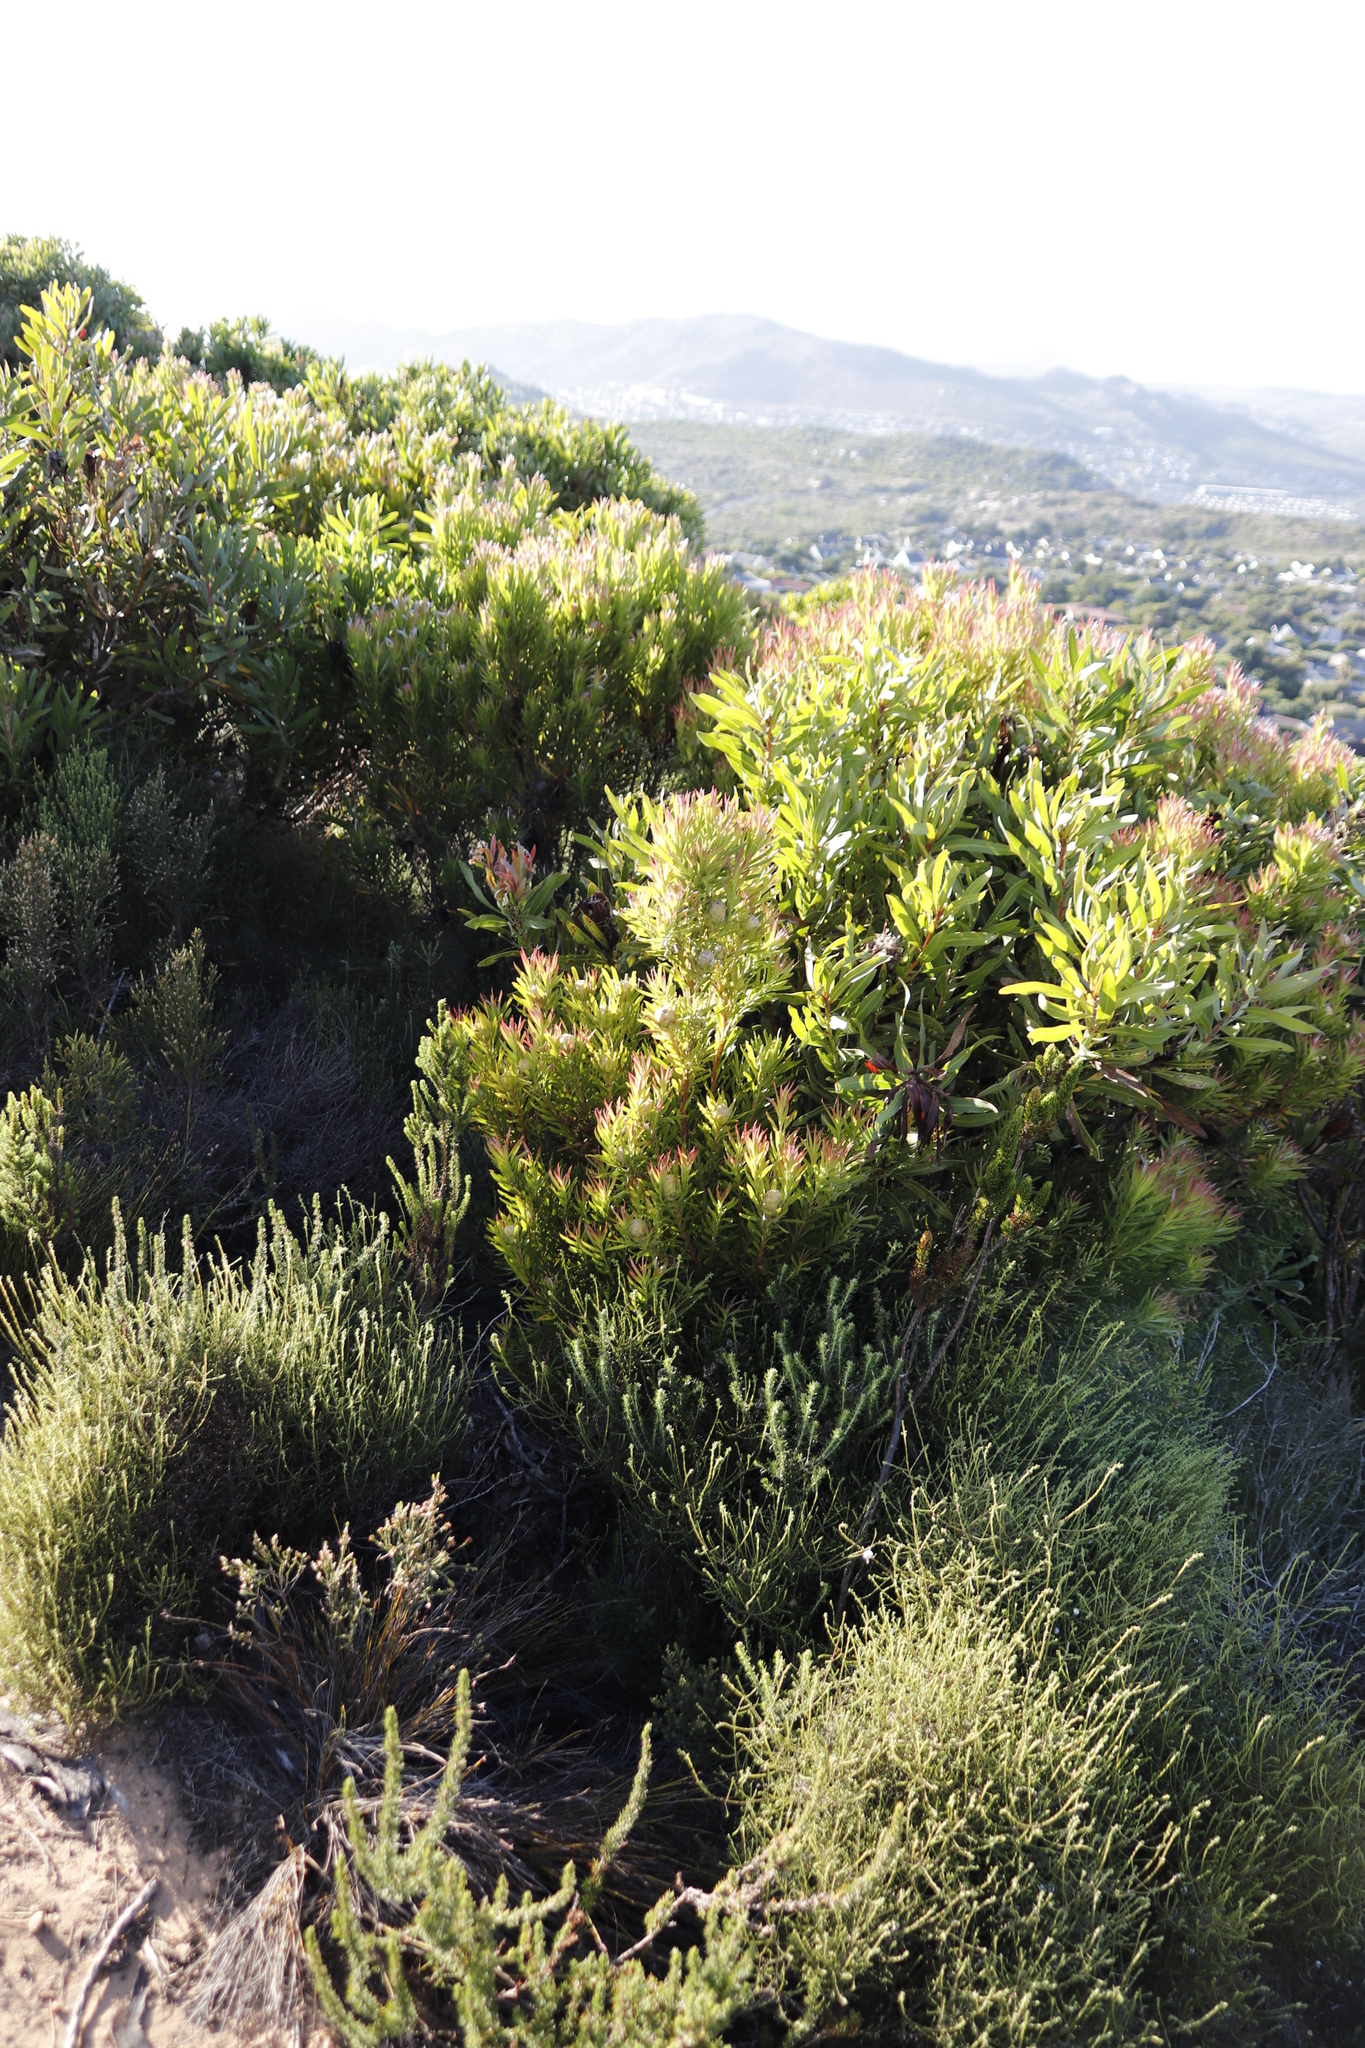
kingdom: Plantae
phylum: Tracheophyta
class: Magnoliopsida
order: Proteales
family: Proteaceae
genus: Leucadendron
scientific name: Leucadendron xanthoconus
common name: Sickle-leaf conebush
